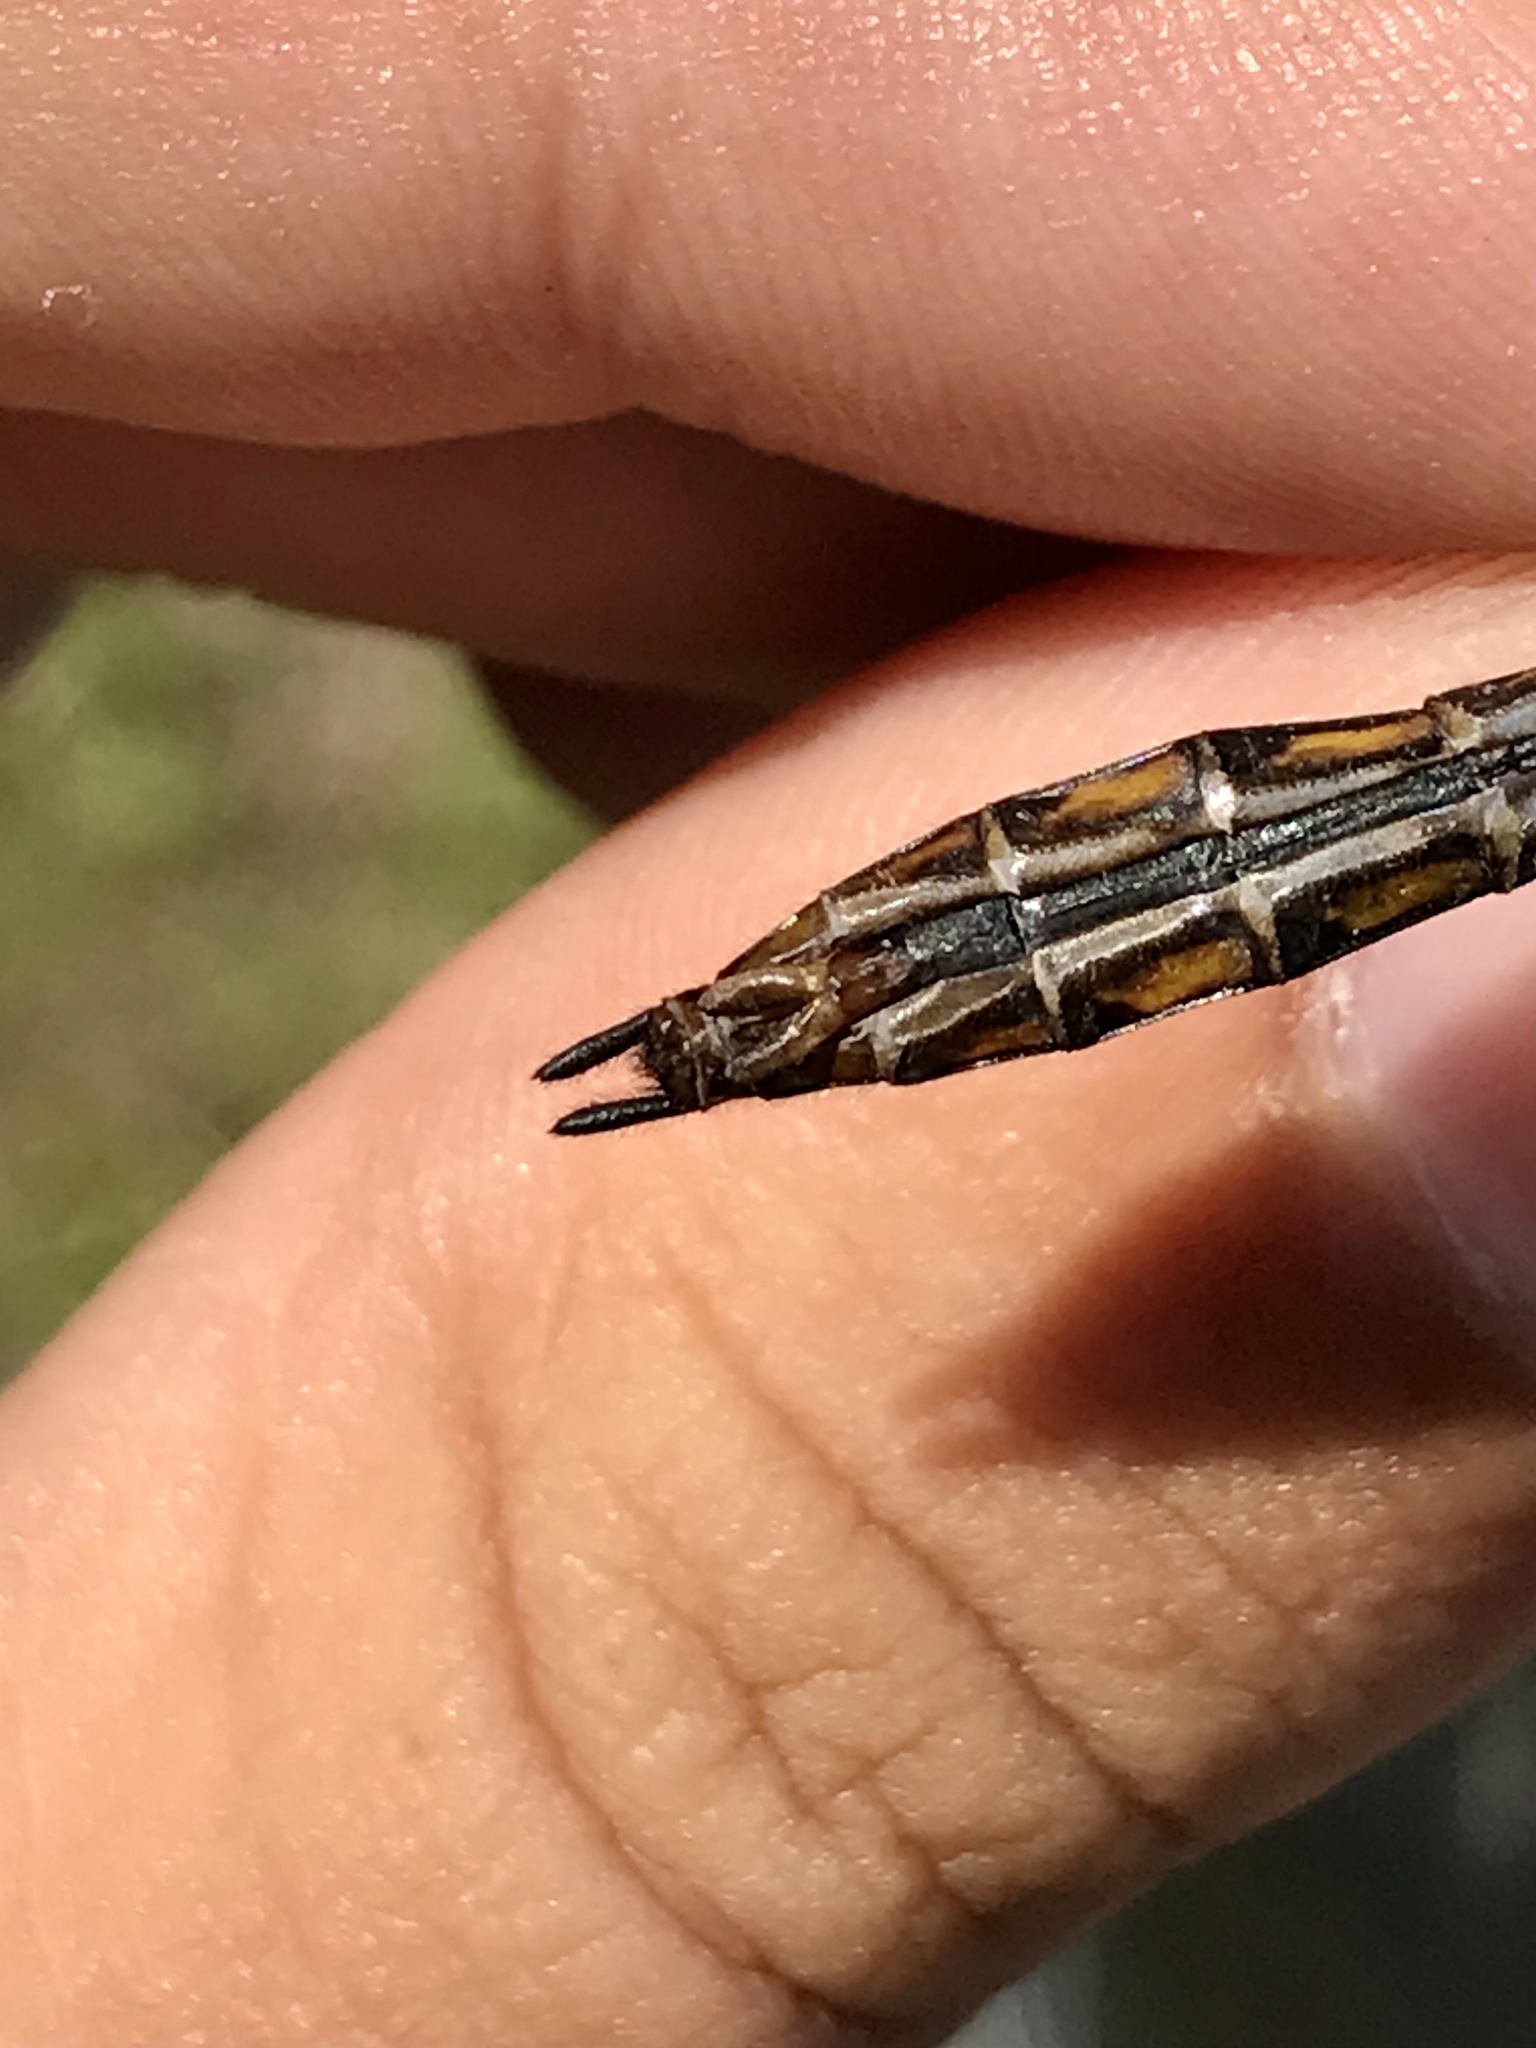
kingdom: Animalia
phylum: Arthropoda
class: Insecta
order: Odonata
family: Corduliidae
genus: Epitheca
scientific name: Epitheca canis
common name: Beaverpond baskettail
